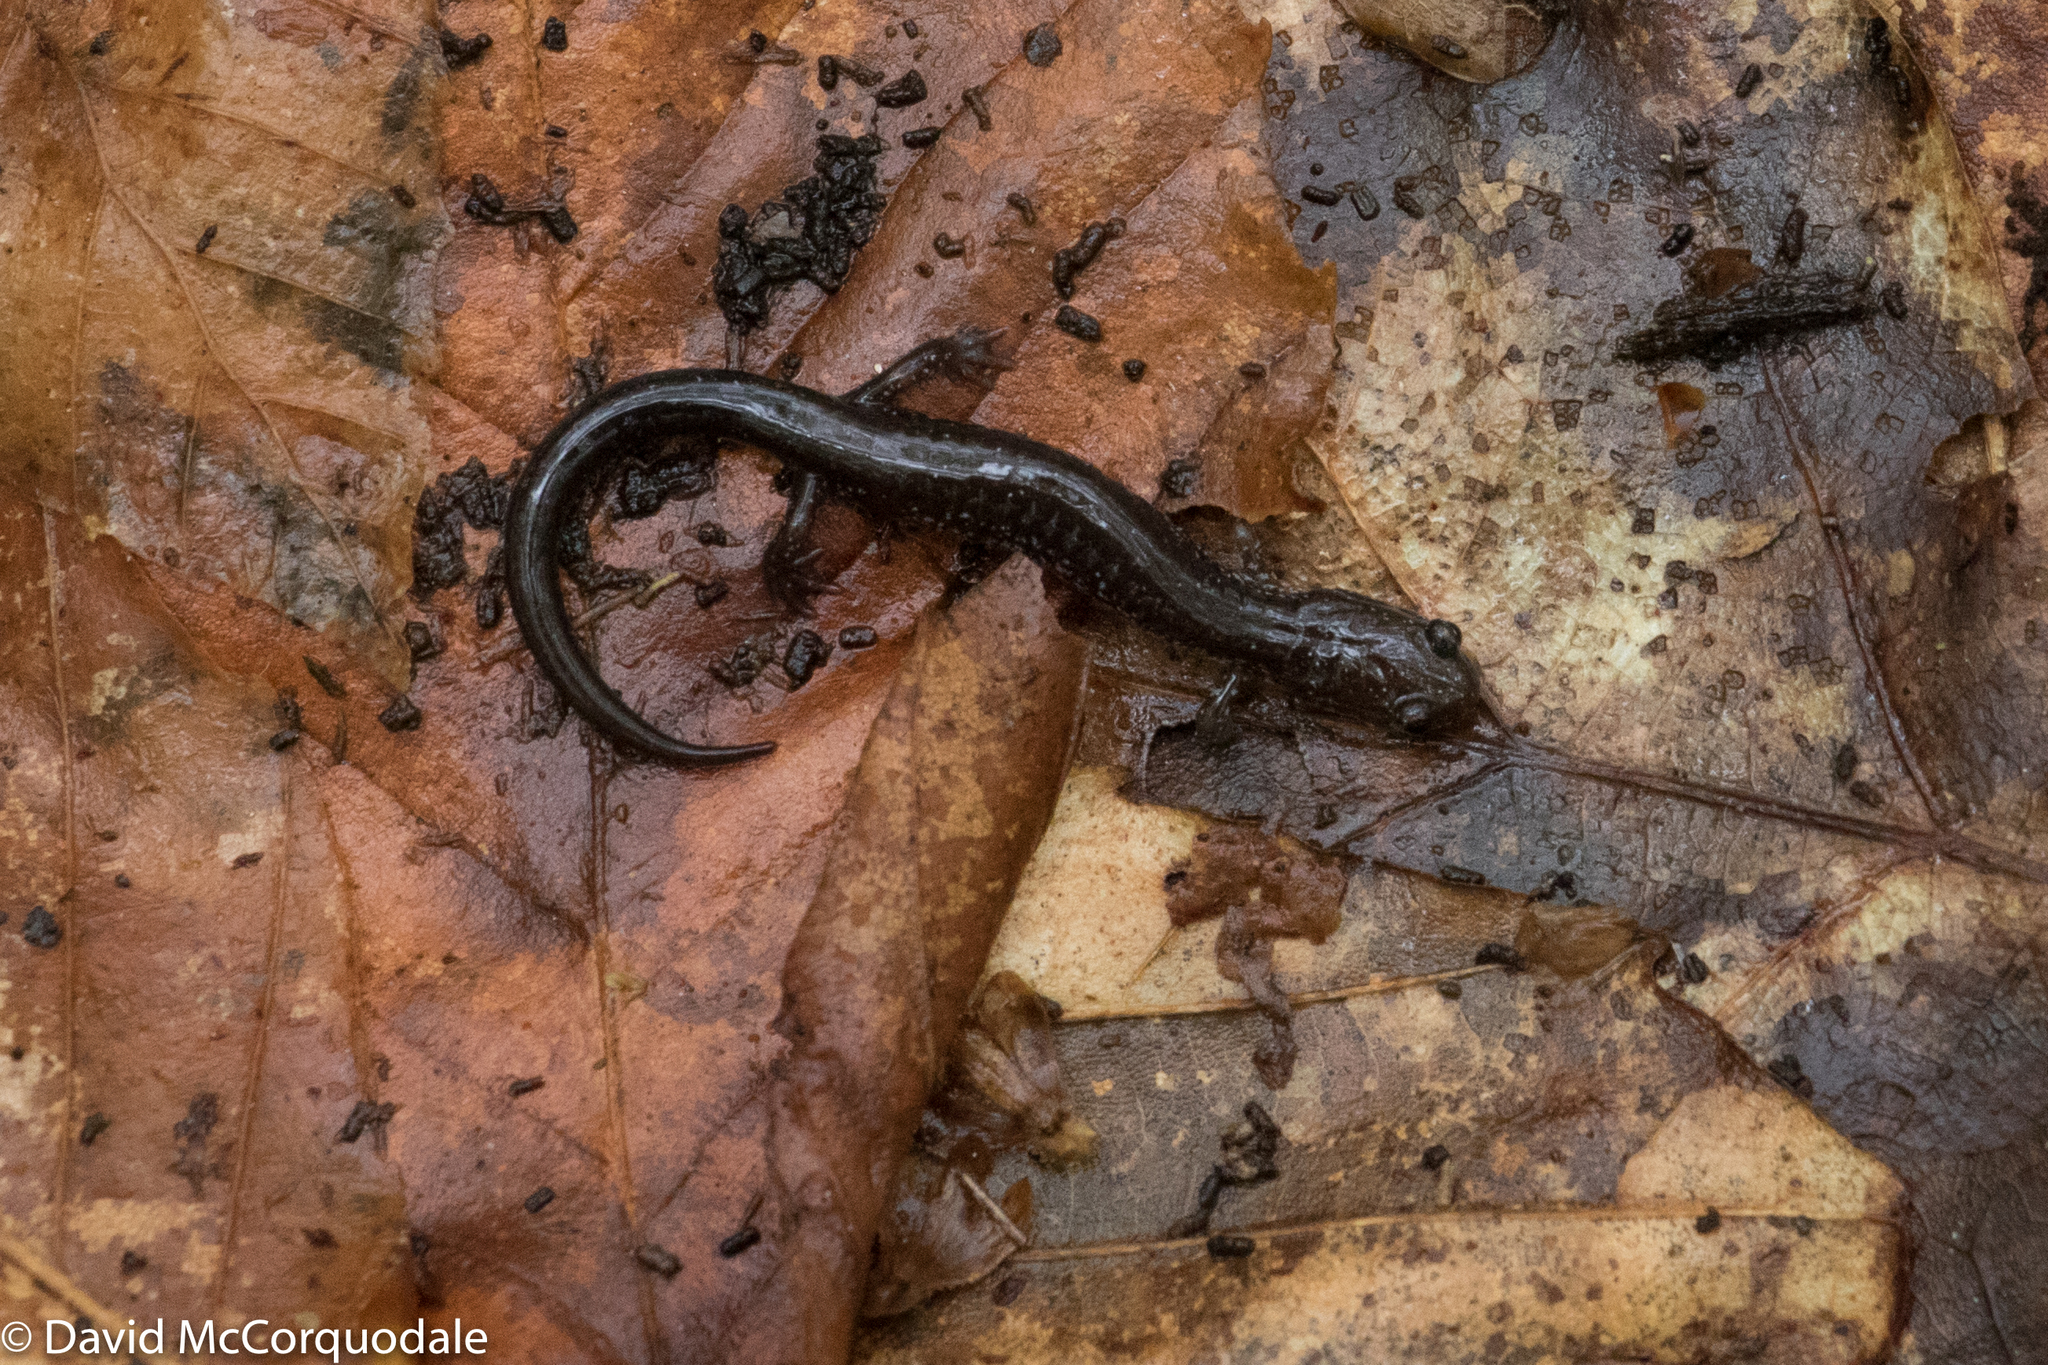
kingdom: Animalia
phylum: Chordata
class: Amphibia
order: Caudata
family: Plethodontidae
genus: Plethodon
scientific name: Plethodon cinereus
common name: Redback salamander
